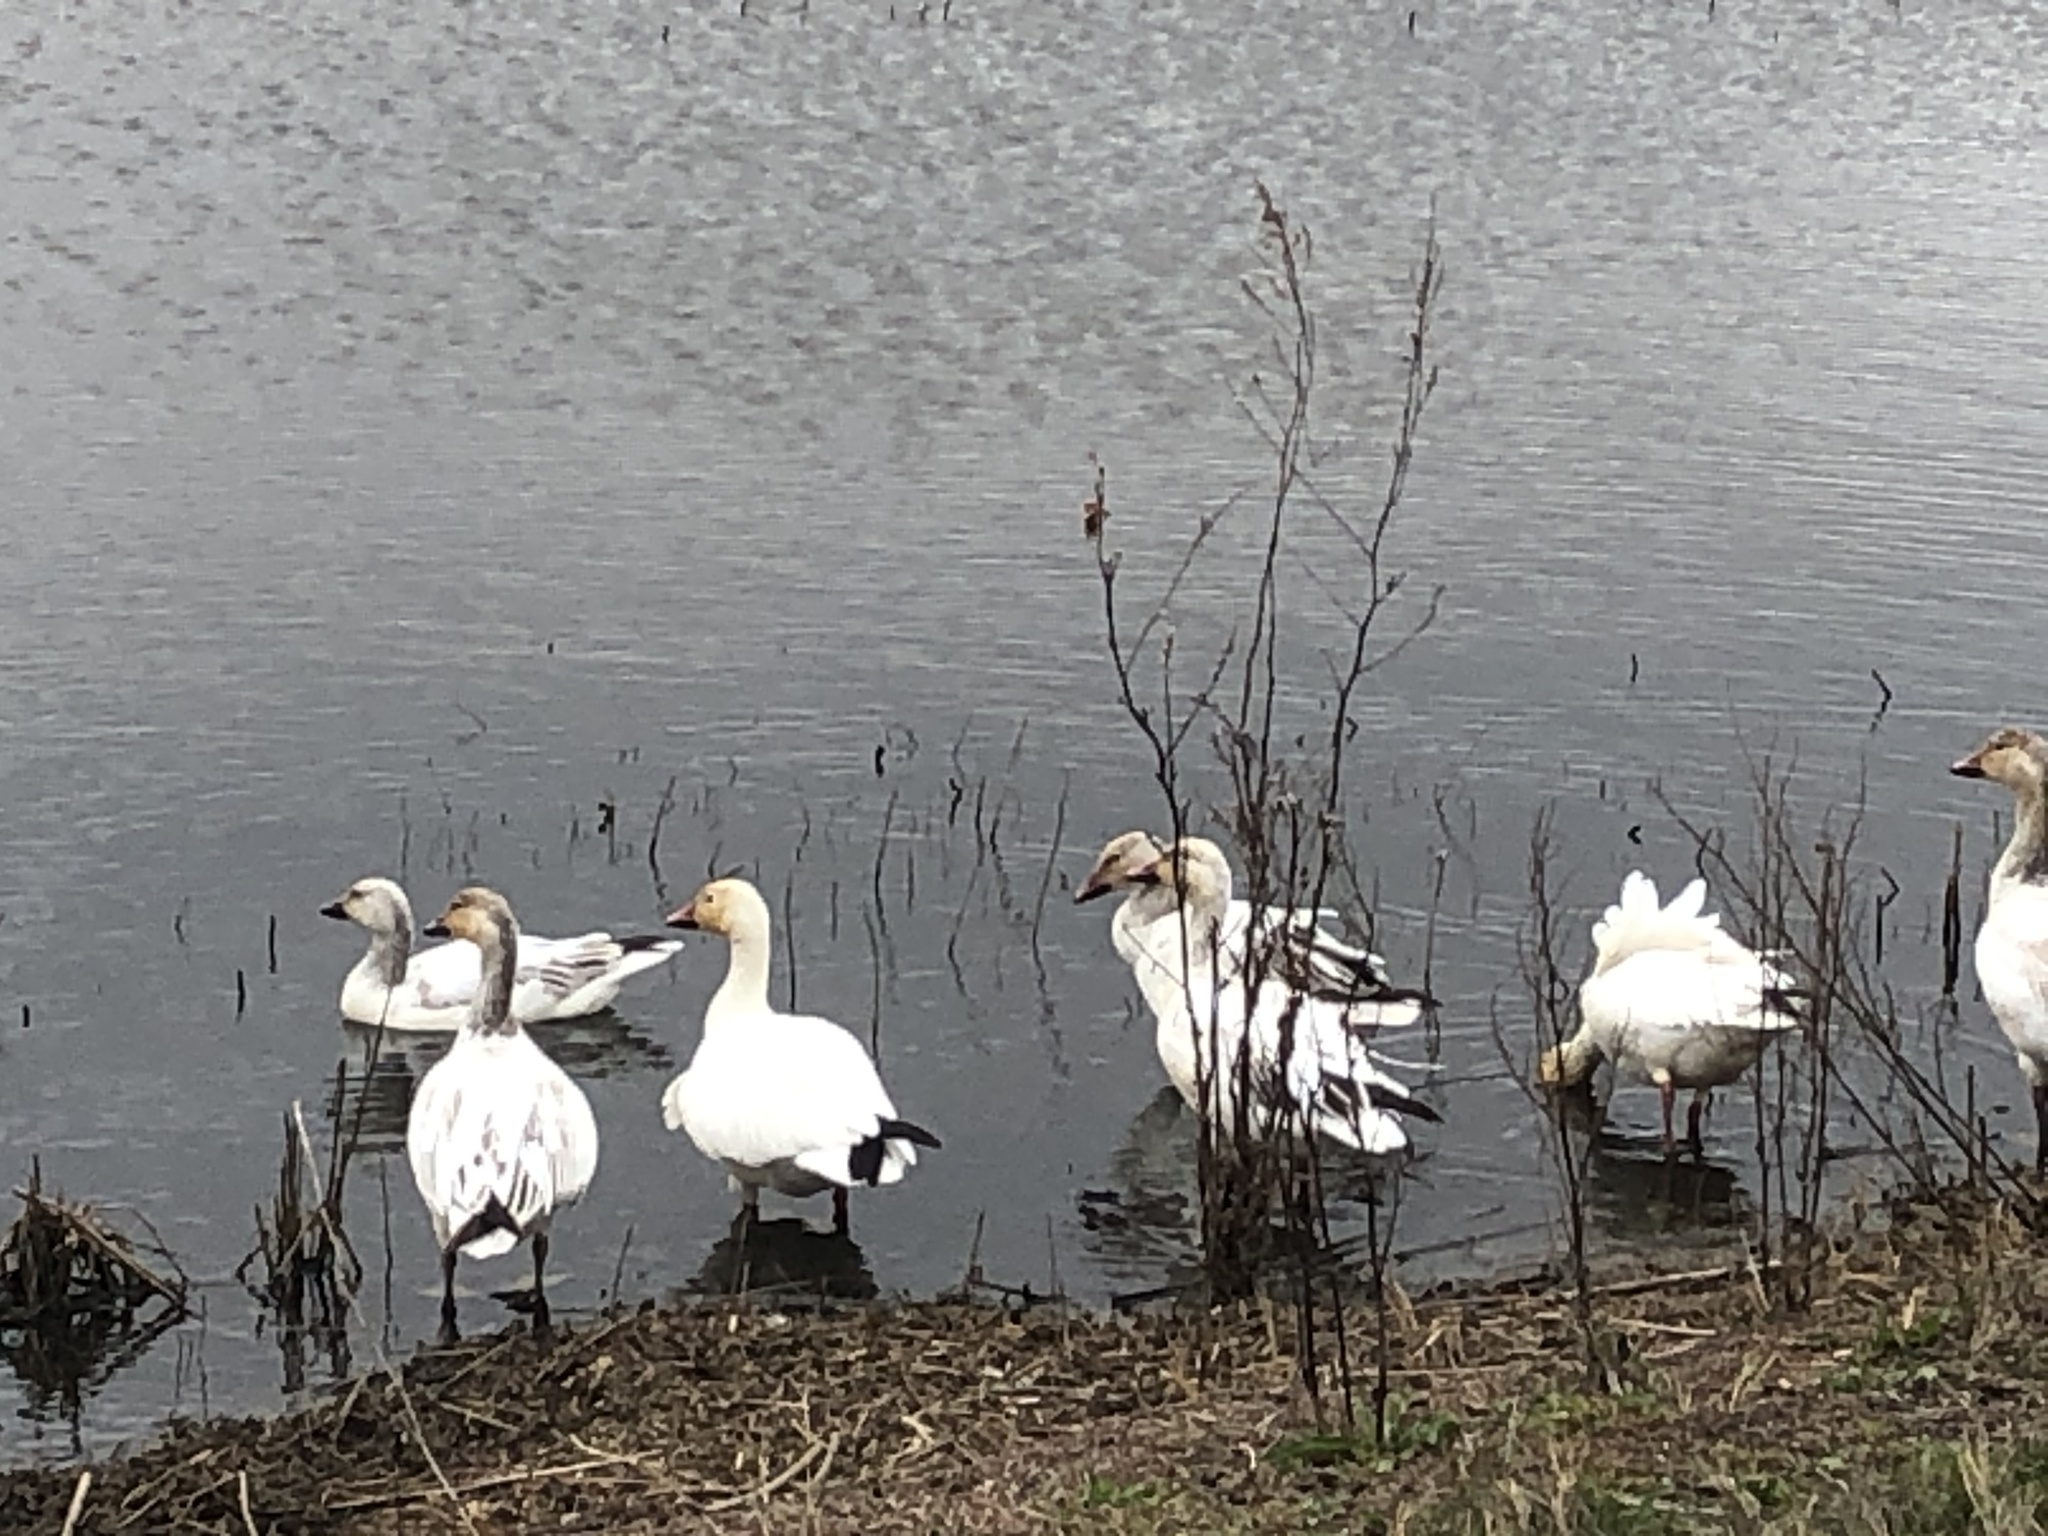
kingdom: Animalia
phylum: Chordata
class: Aves
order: Anseriformes
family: Anatidae
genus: Anser
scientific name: Anser caerulescens
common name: Snow goose
